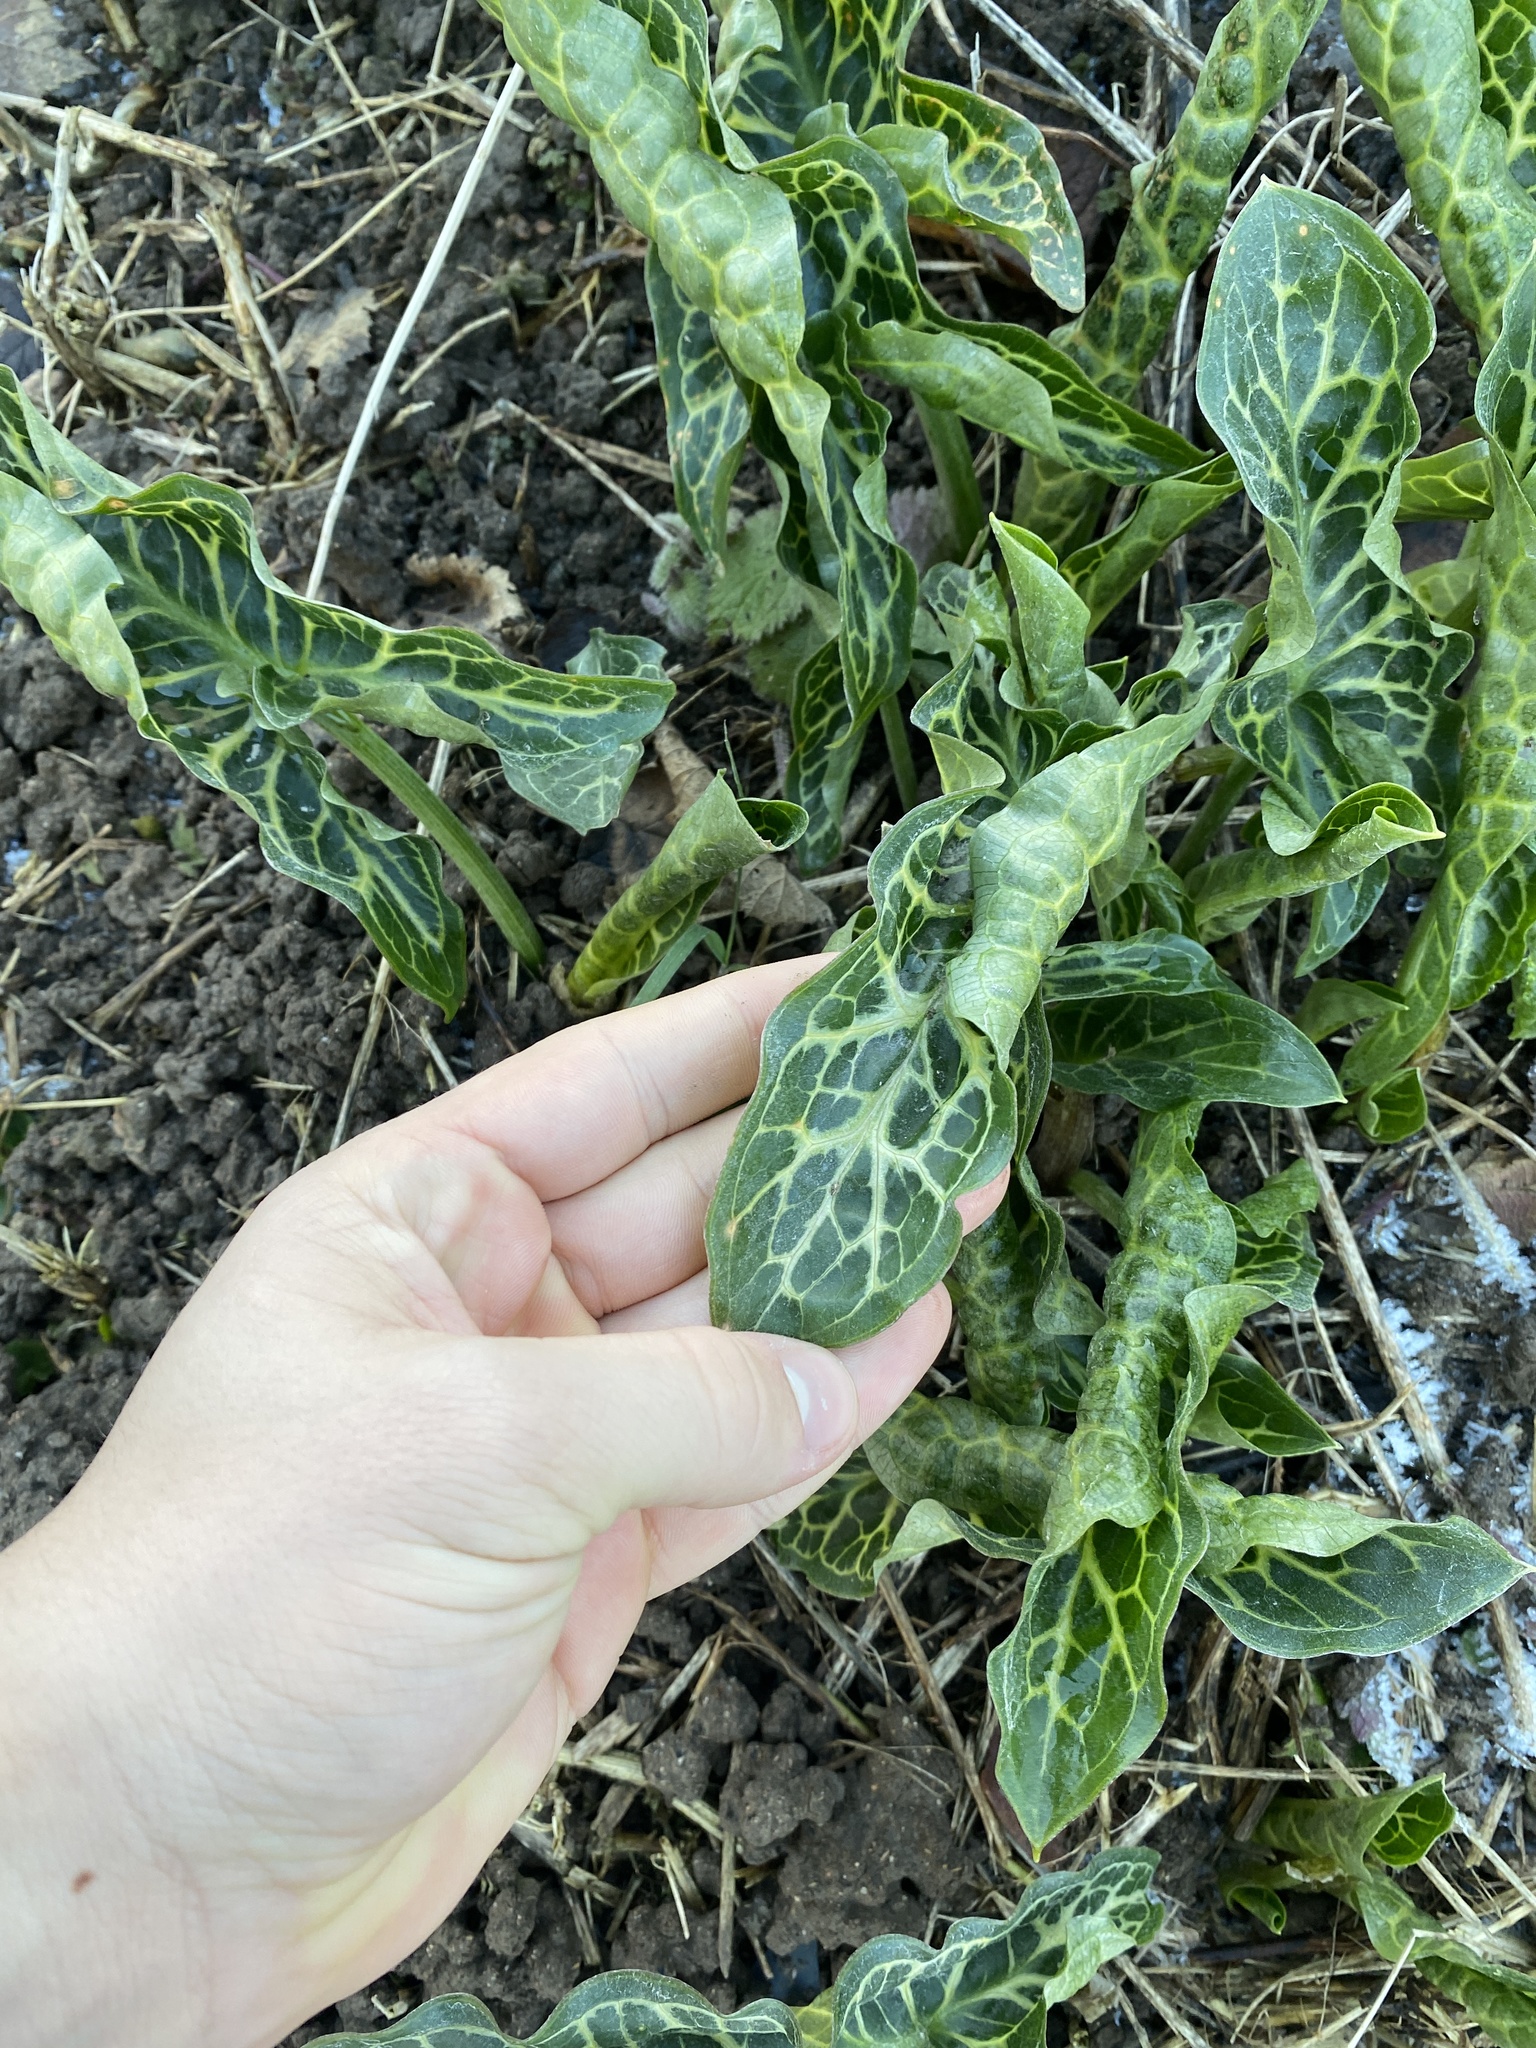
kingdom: Plantae
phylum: Tracheophyta
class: Liliopsida
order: Alismatales
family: Araceae
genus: Arum
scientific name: Arum italicum
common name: Italian lords-and-ladies
